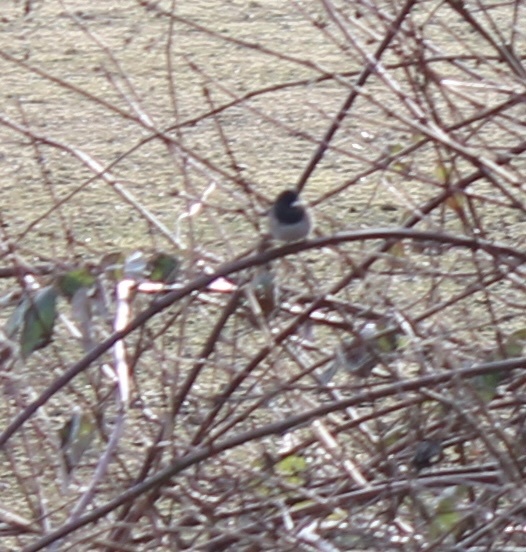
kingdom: Animalia
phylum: Chordata
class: Aves
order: Passeriformes
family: Passerellidae
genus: Junco
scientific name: Junco hyemalis
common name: Dark-eyed junco
